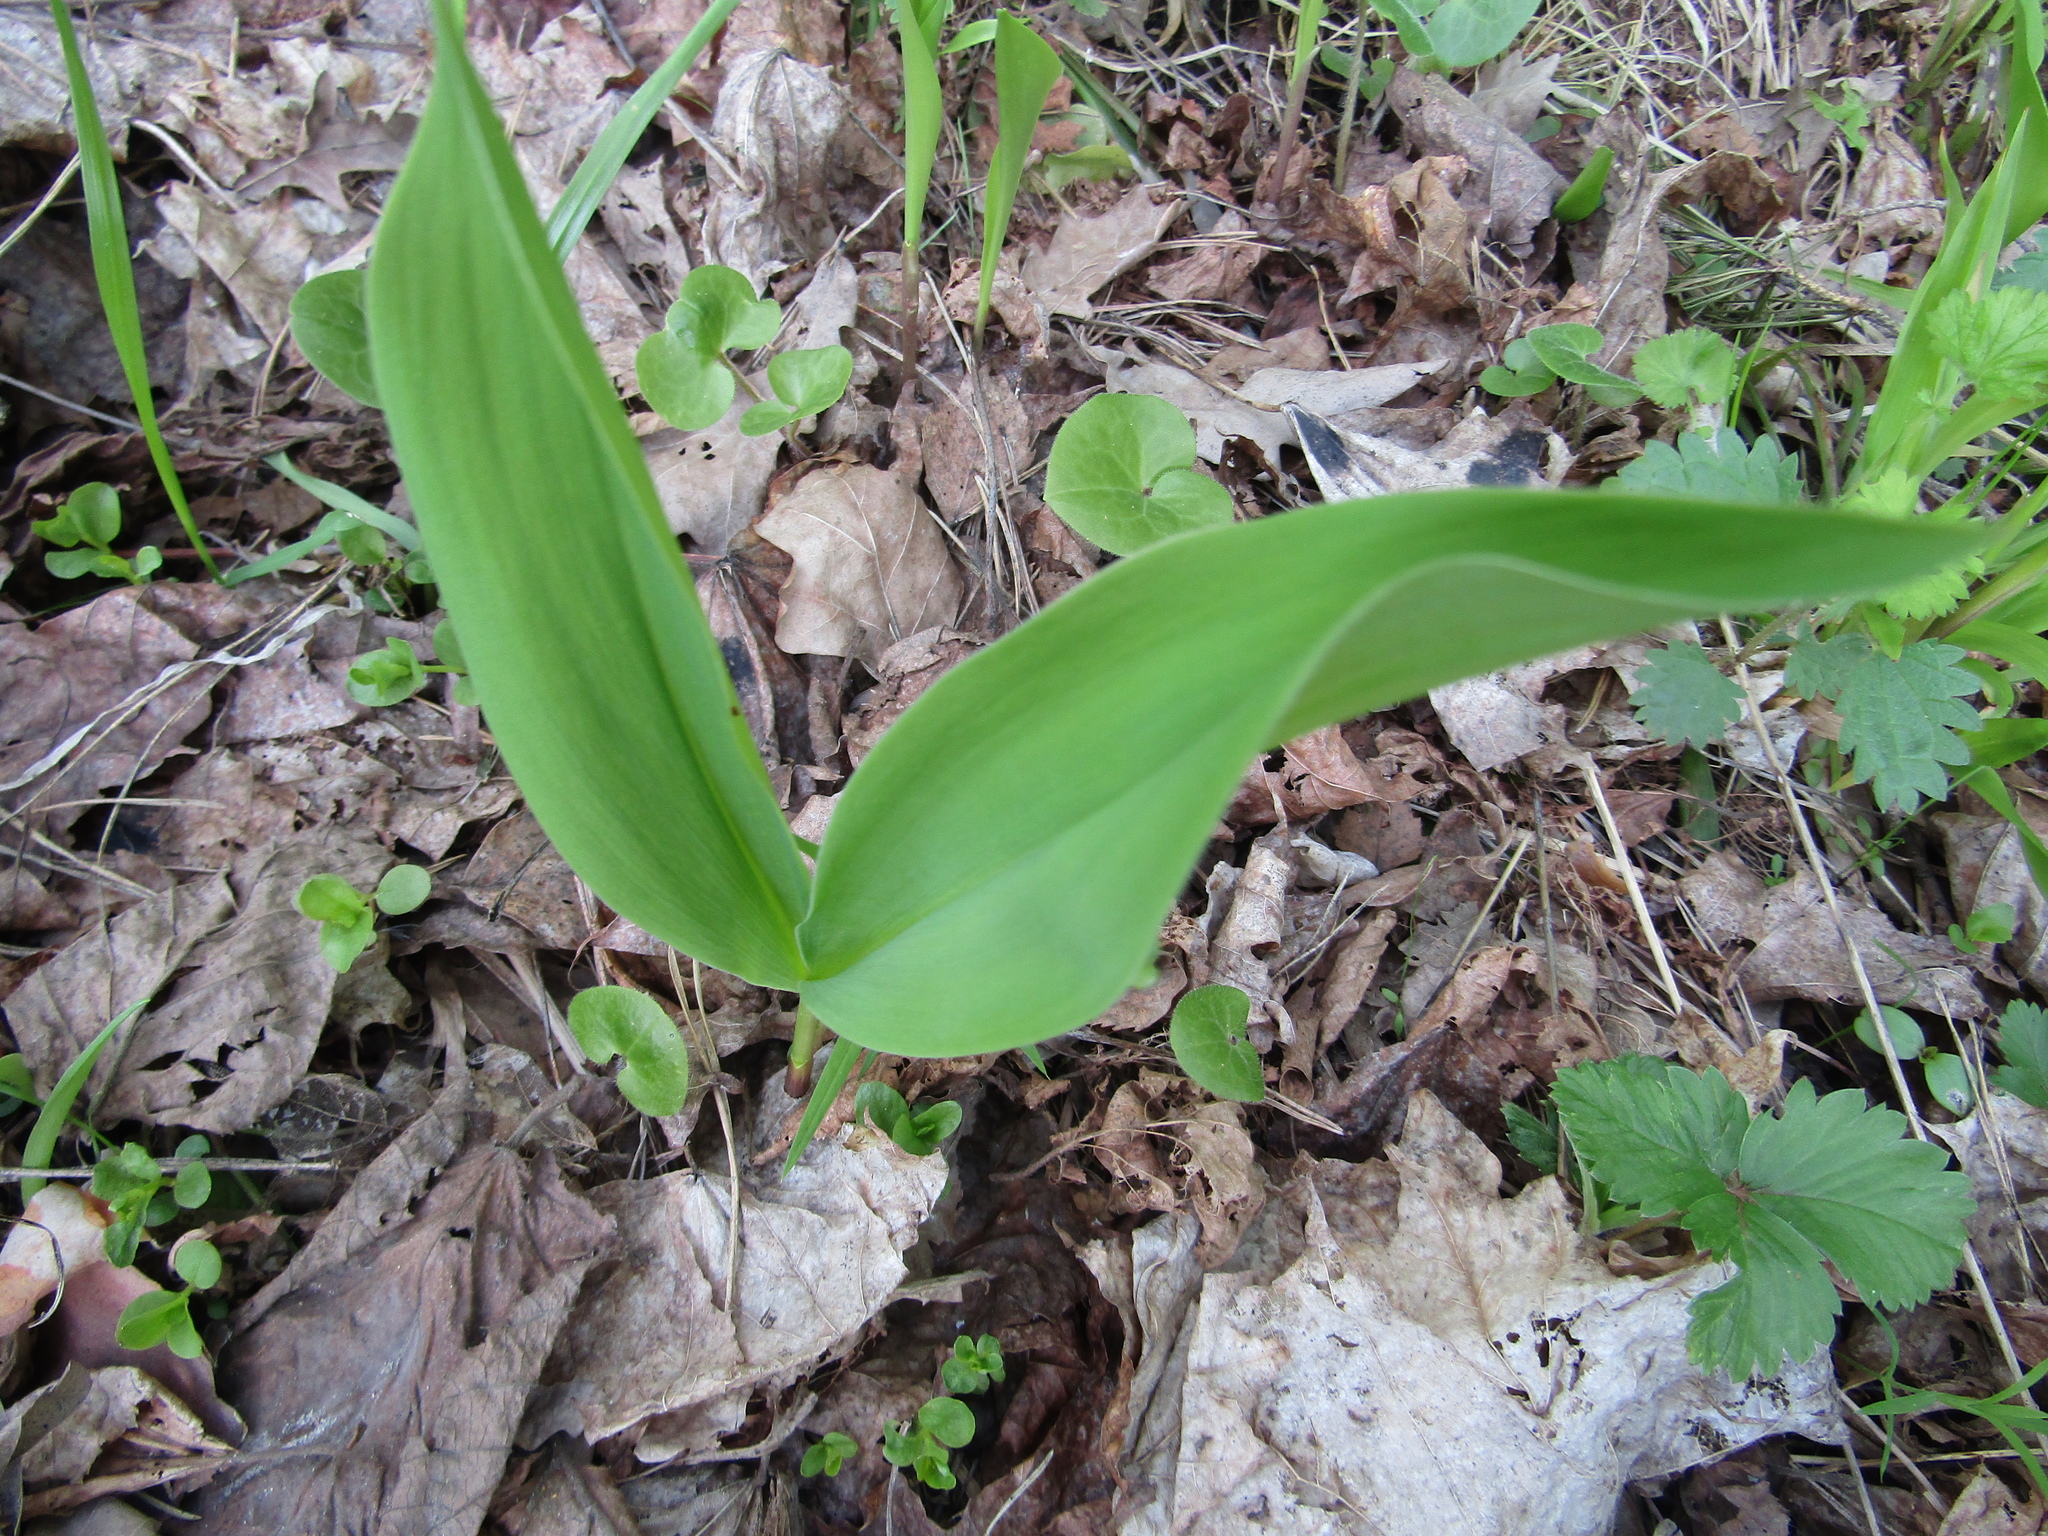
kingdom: Plantae
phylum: Tracheophyta
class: Liliopsida
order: Asparagales
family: Asparagaceae
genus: Convallaria
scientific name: Convallaria majalis
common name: Lily-of-the-valley
